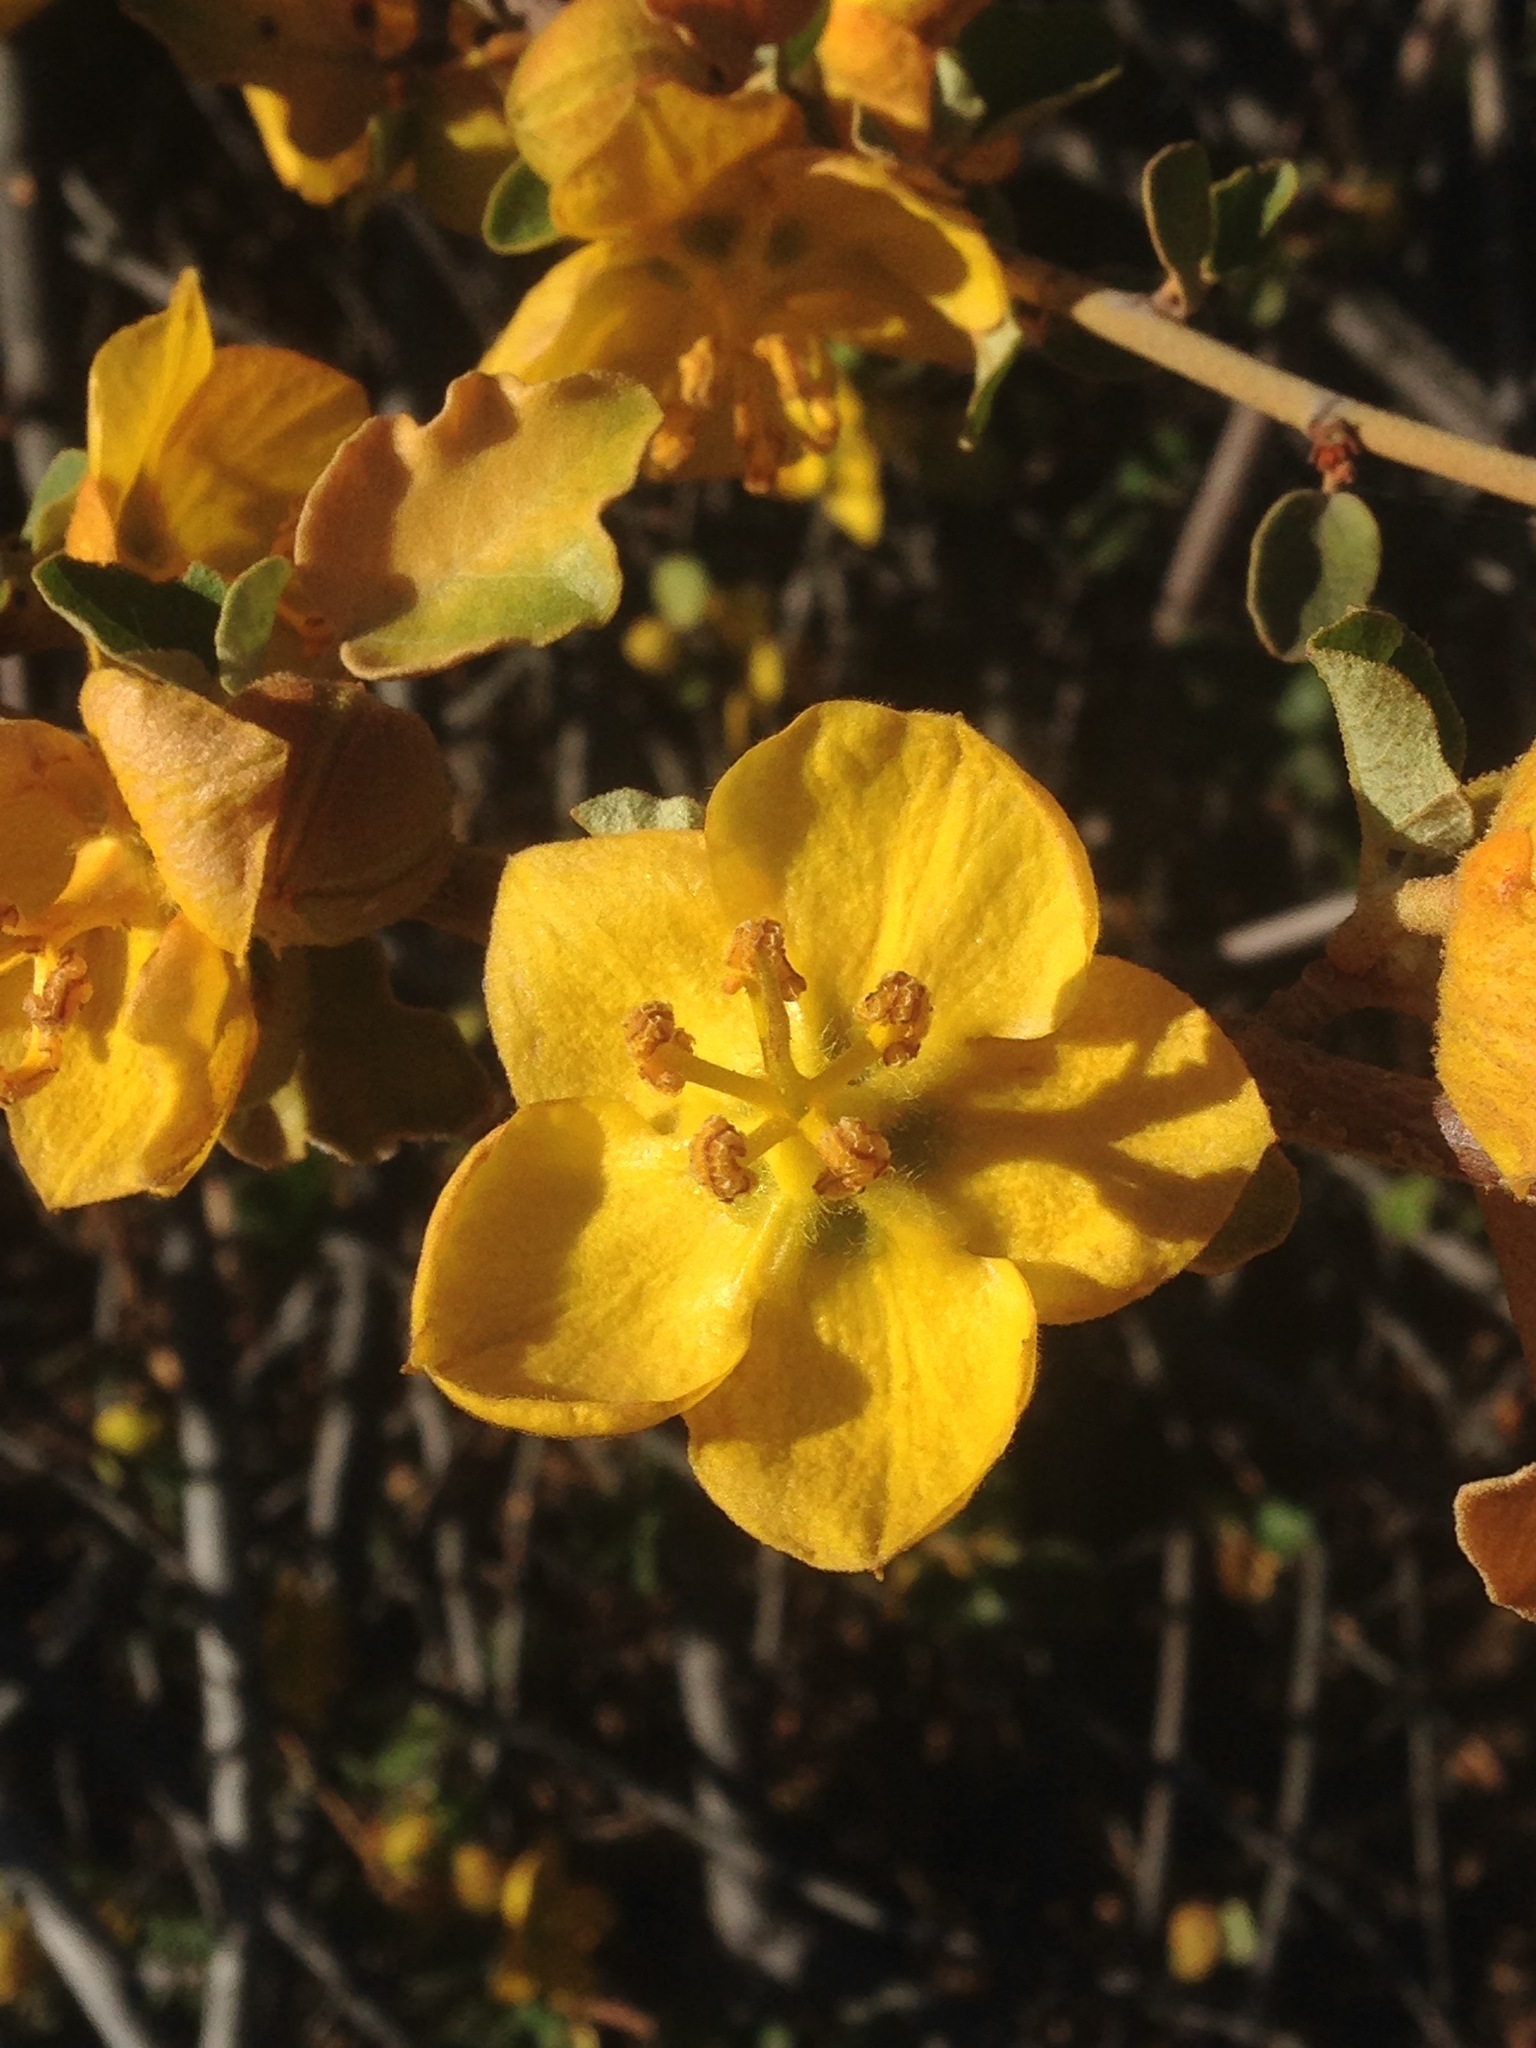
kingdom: Plantae
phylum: Tracheophyta
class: Magnoliopsida
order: Malvales
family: Malvaceae
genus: Fremontodendron
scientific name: Fremontodendron californicum
